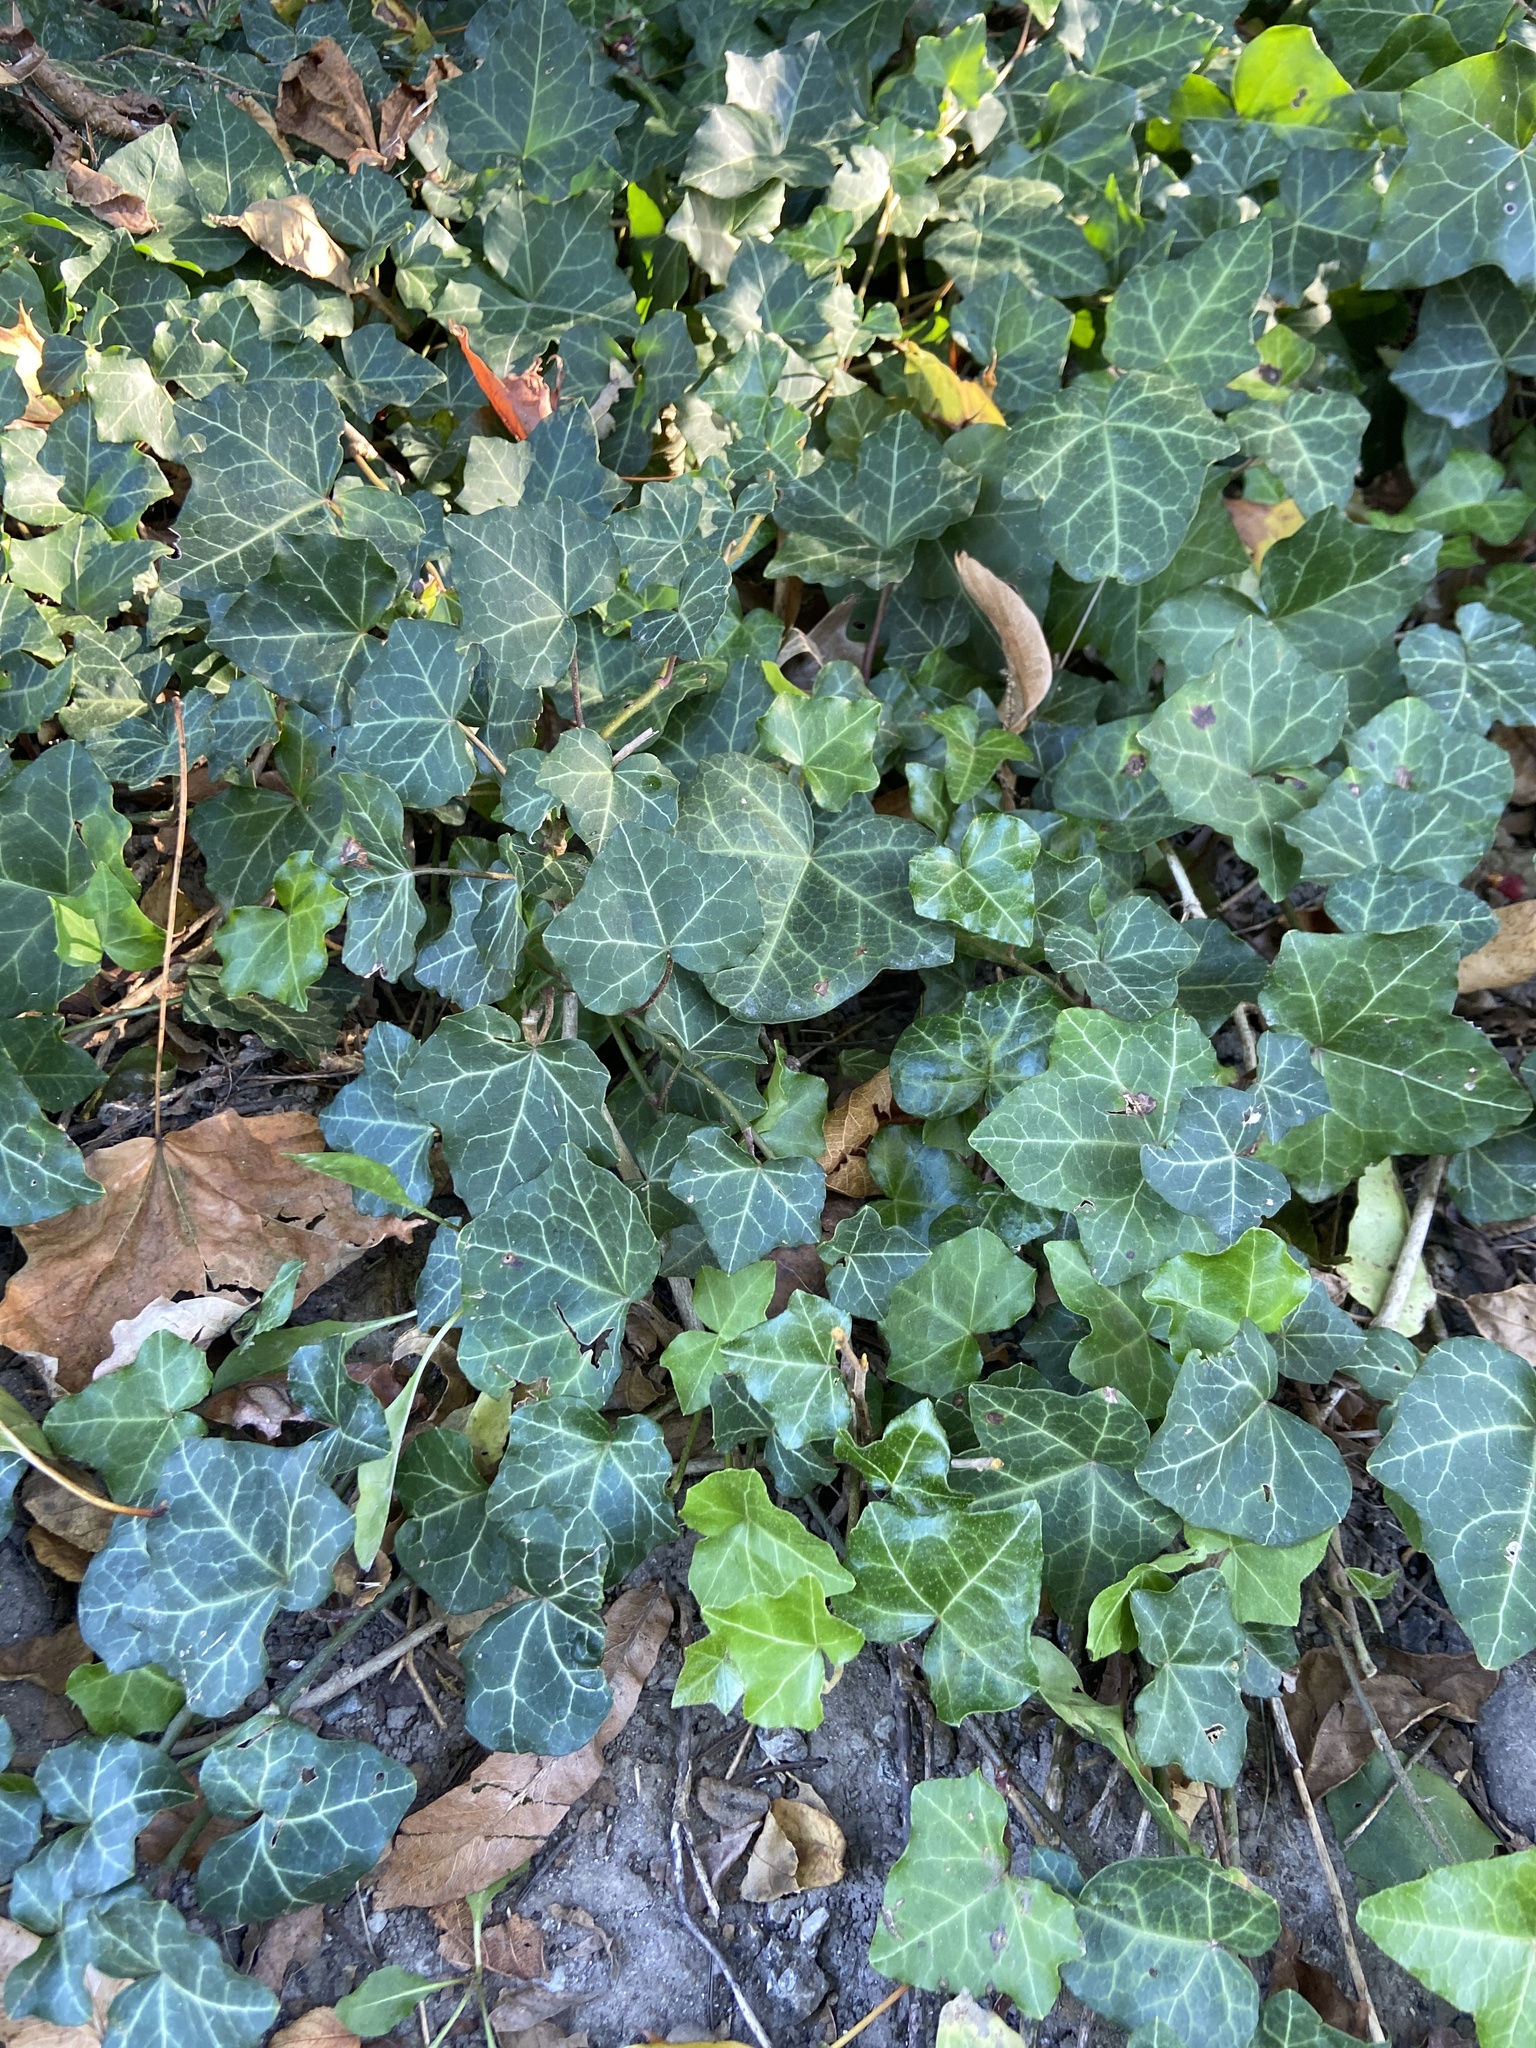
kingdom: Plantae
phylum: Tracheophyta
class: Magnoliopsida
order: Apiales
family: Araliaceae
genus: Hedera
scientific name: Hedera helix
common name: Ivy
